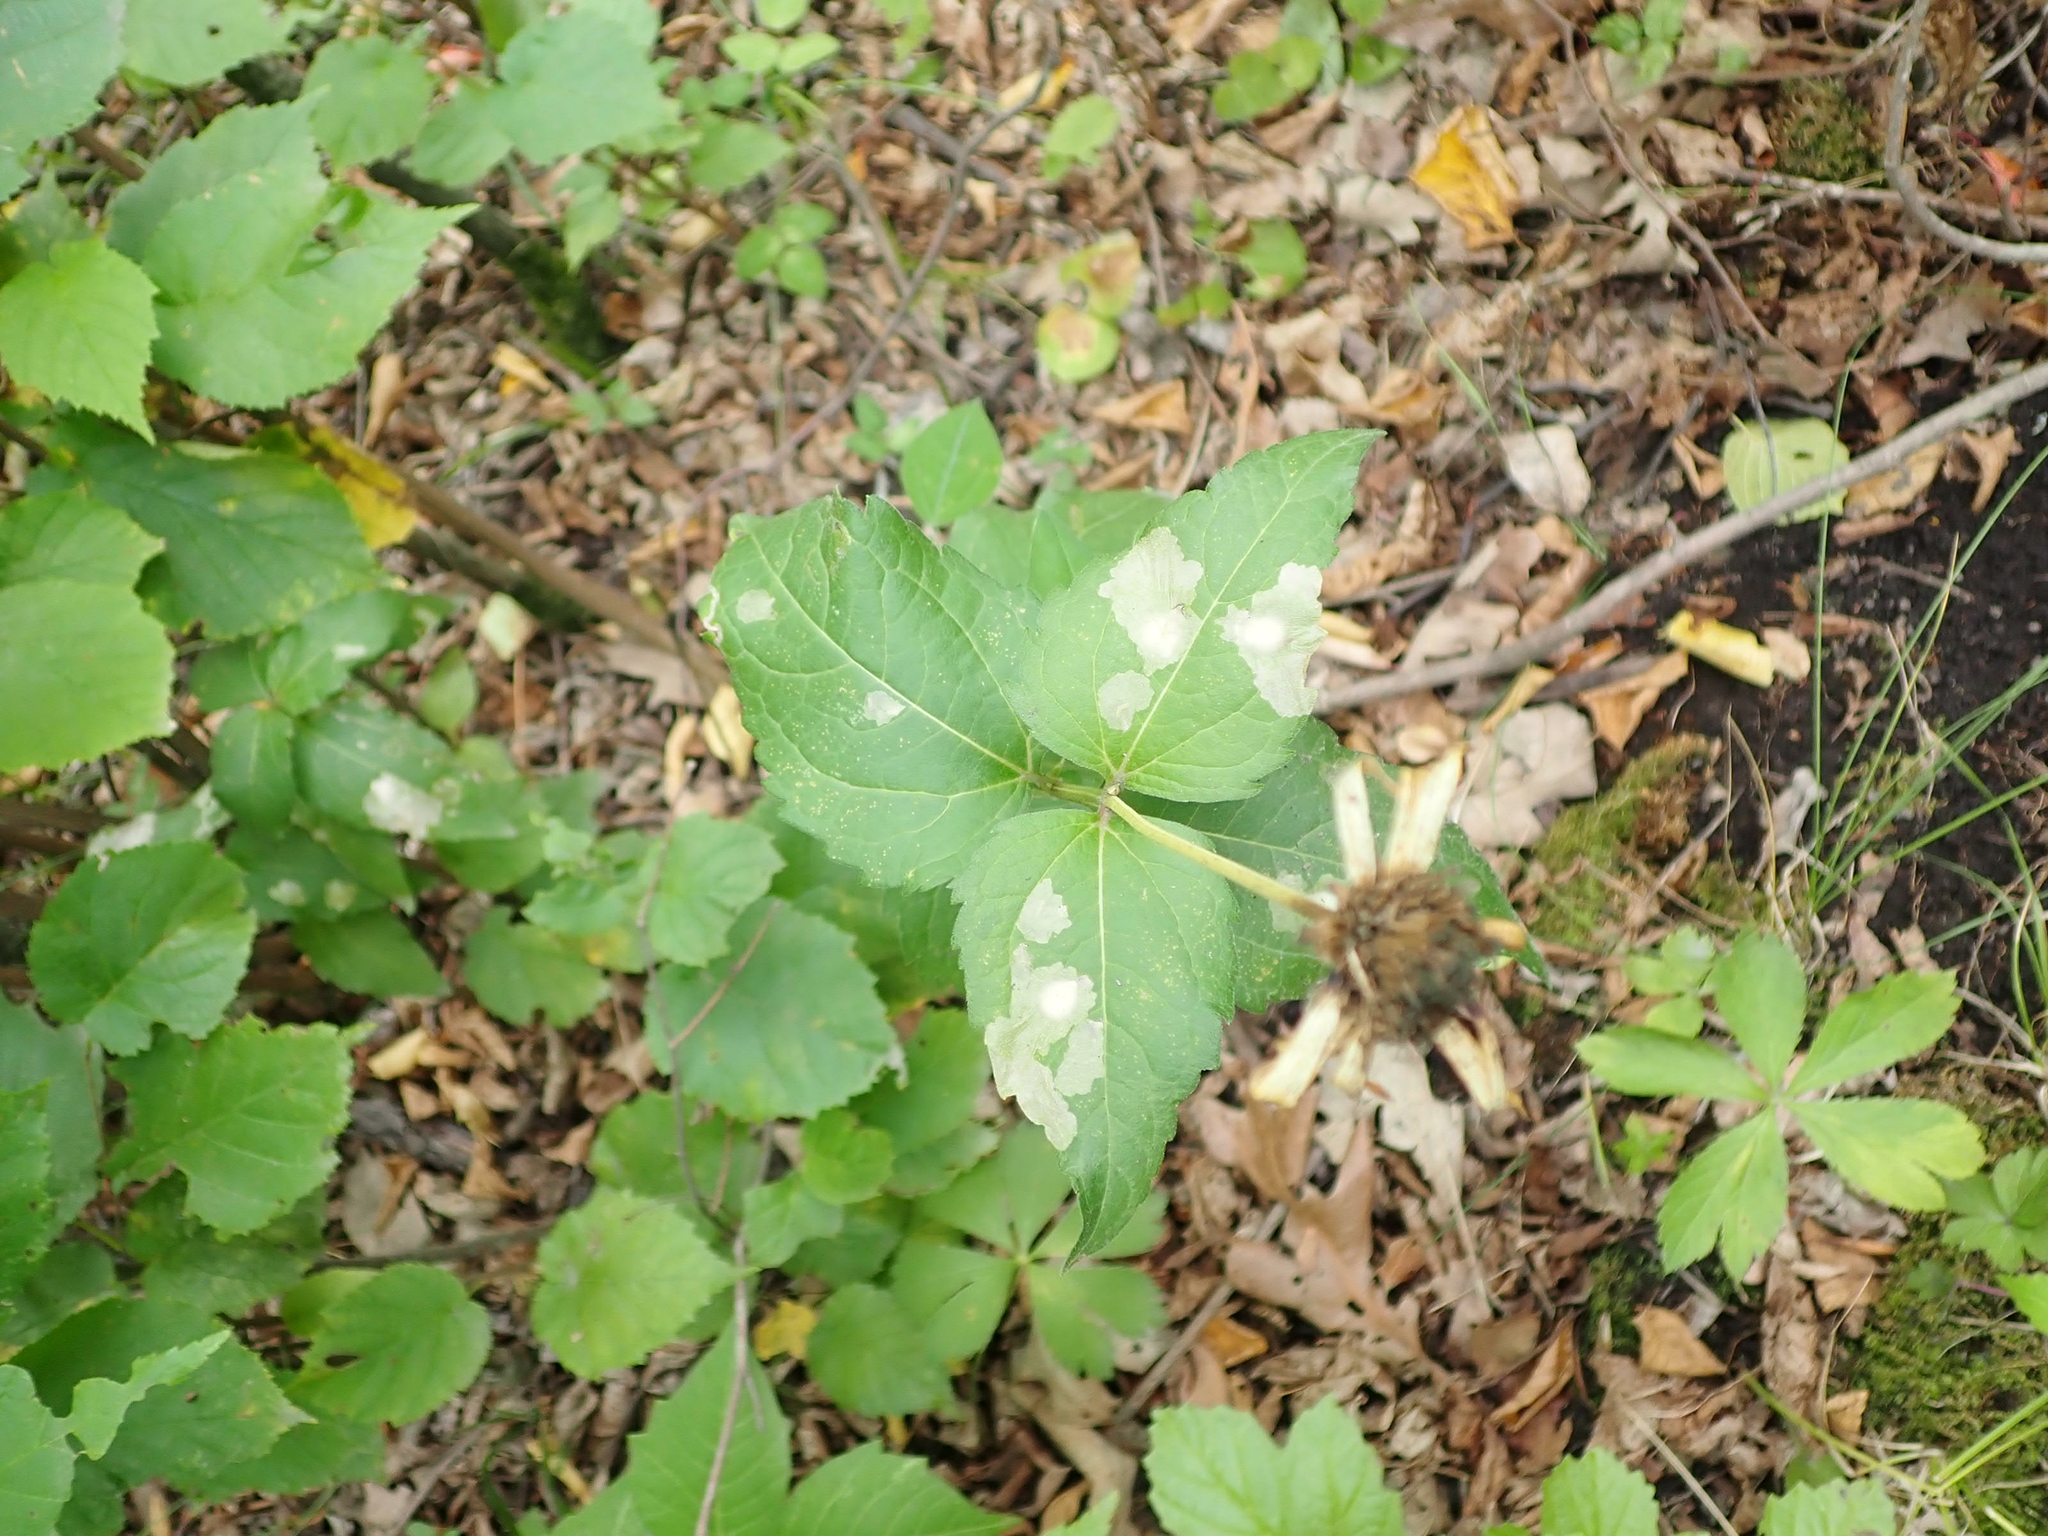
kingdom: Plantae
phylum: Tracheophyta
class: Magnoliopsida
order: Asterales
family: Asteraceae
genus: Heliopsis
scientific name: Heliopsis helianthoides
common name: False sunflower
